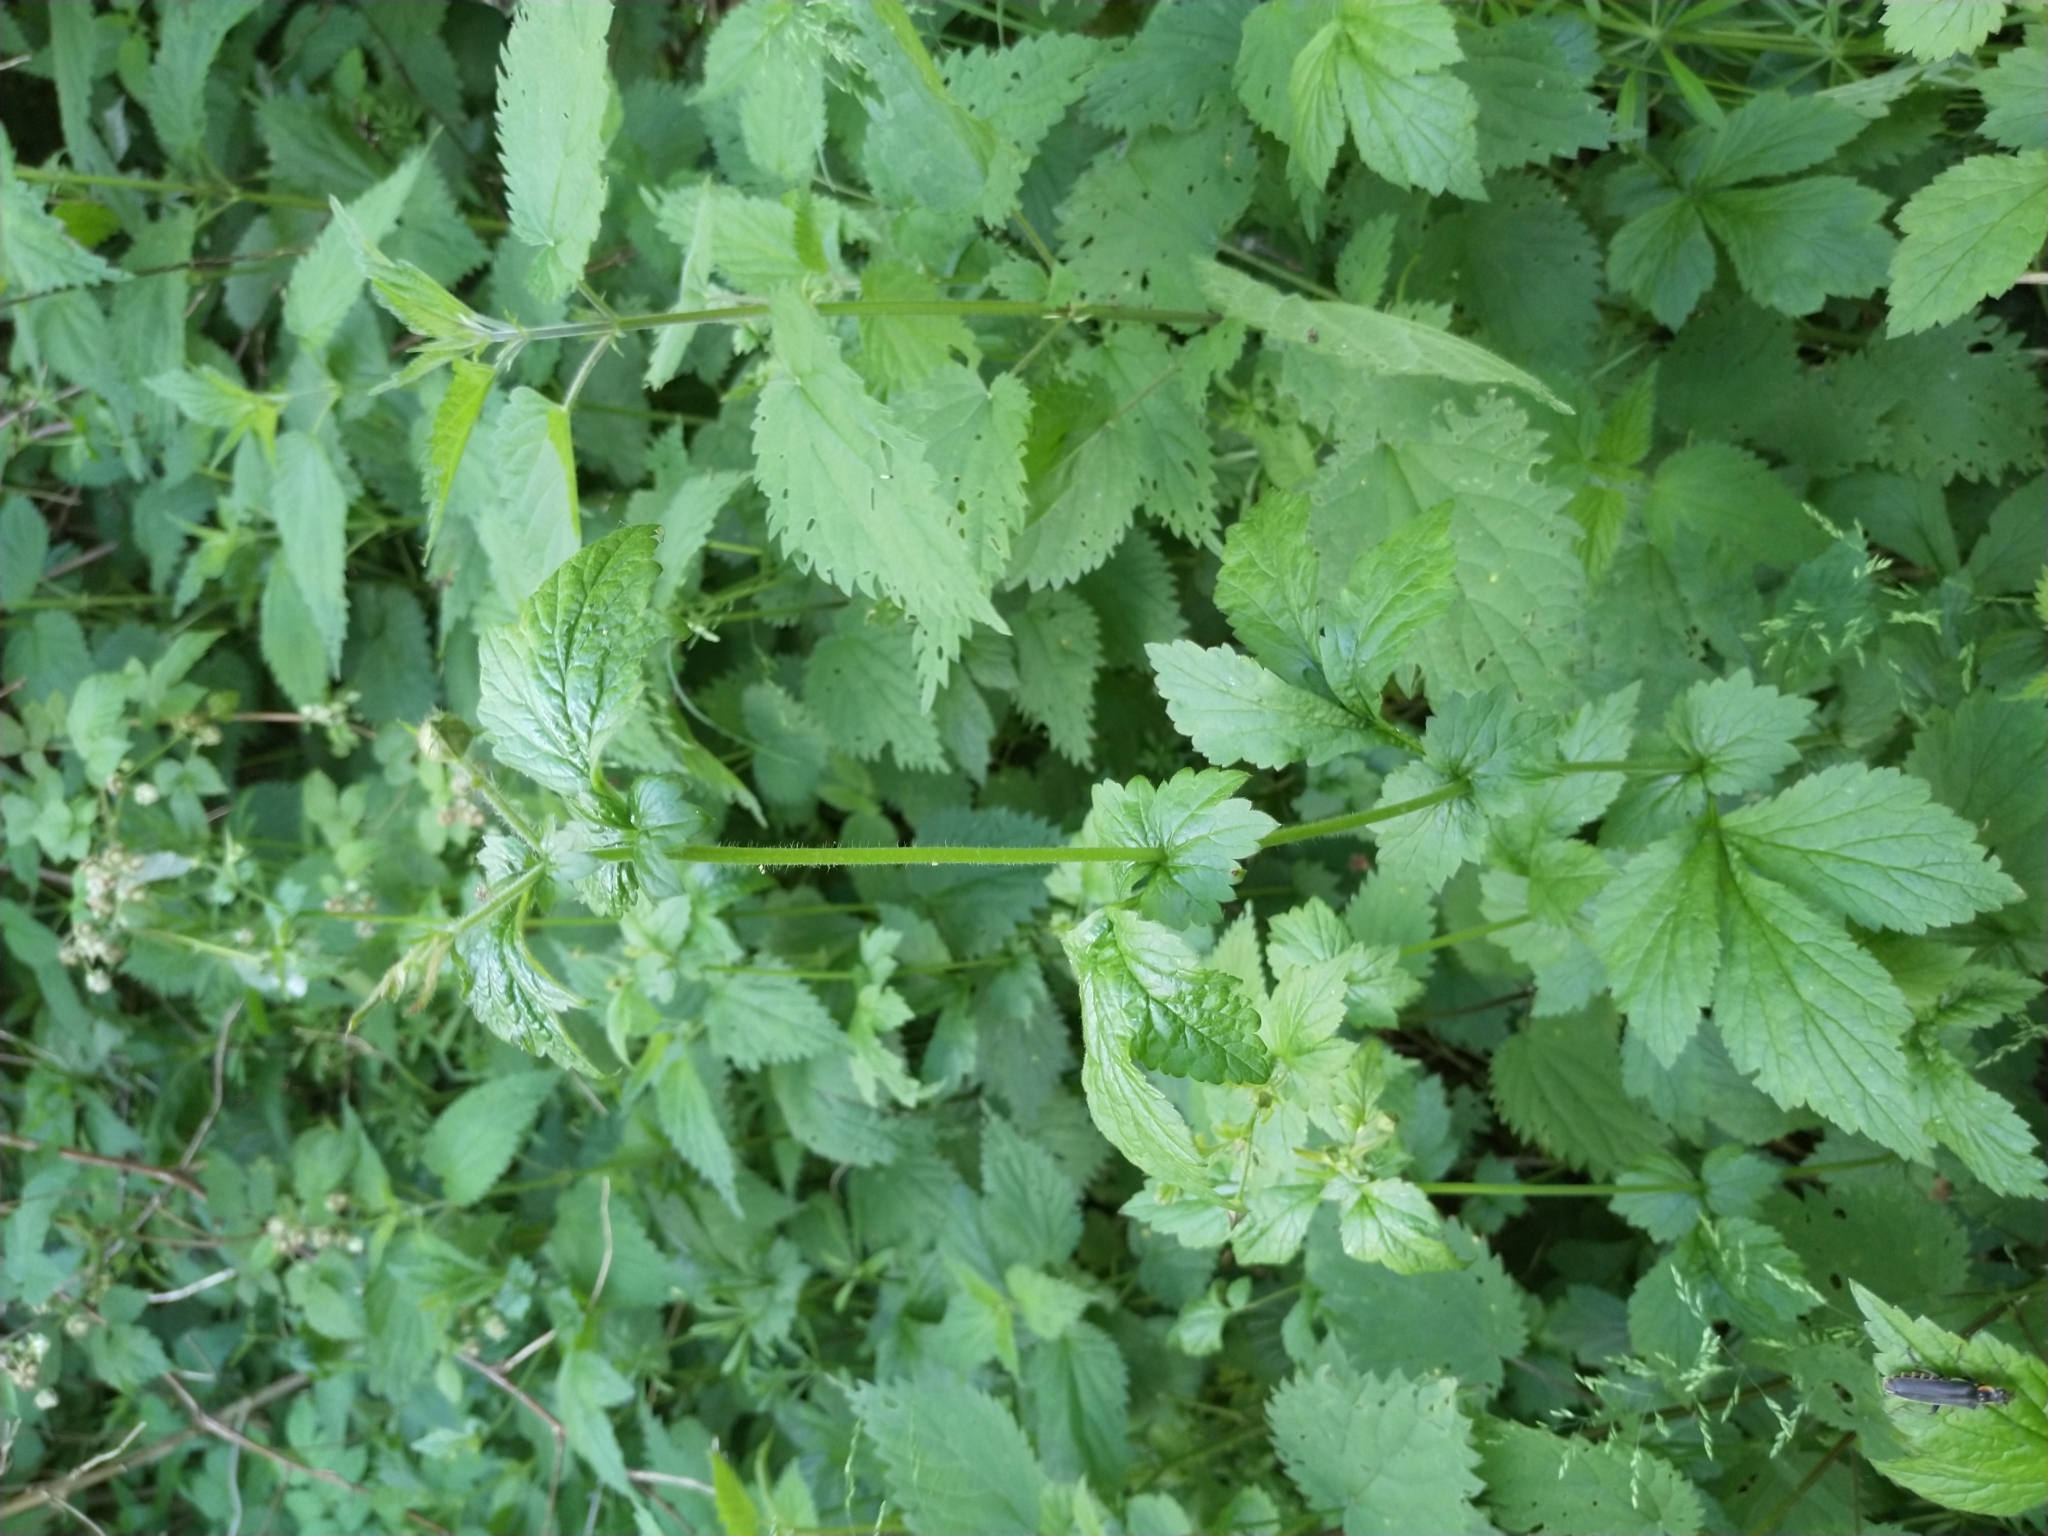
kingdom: Plantae
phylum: Tracheophyta
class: Magnoliopsida
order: Rosales
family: Rosaceae
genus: Geum
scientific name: Geum urbanum
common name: Wood avens
